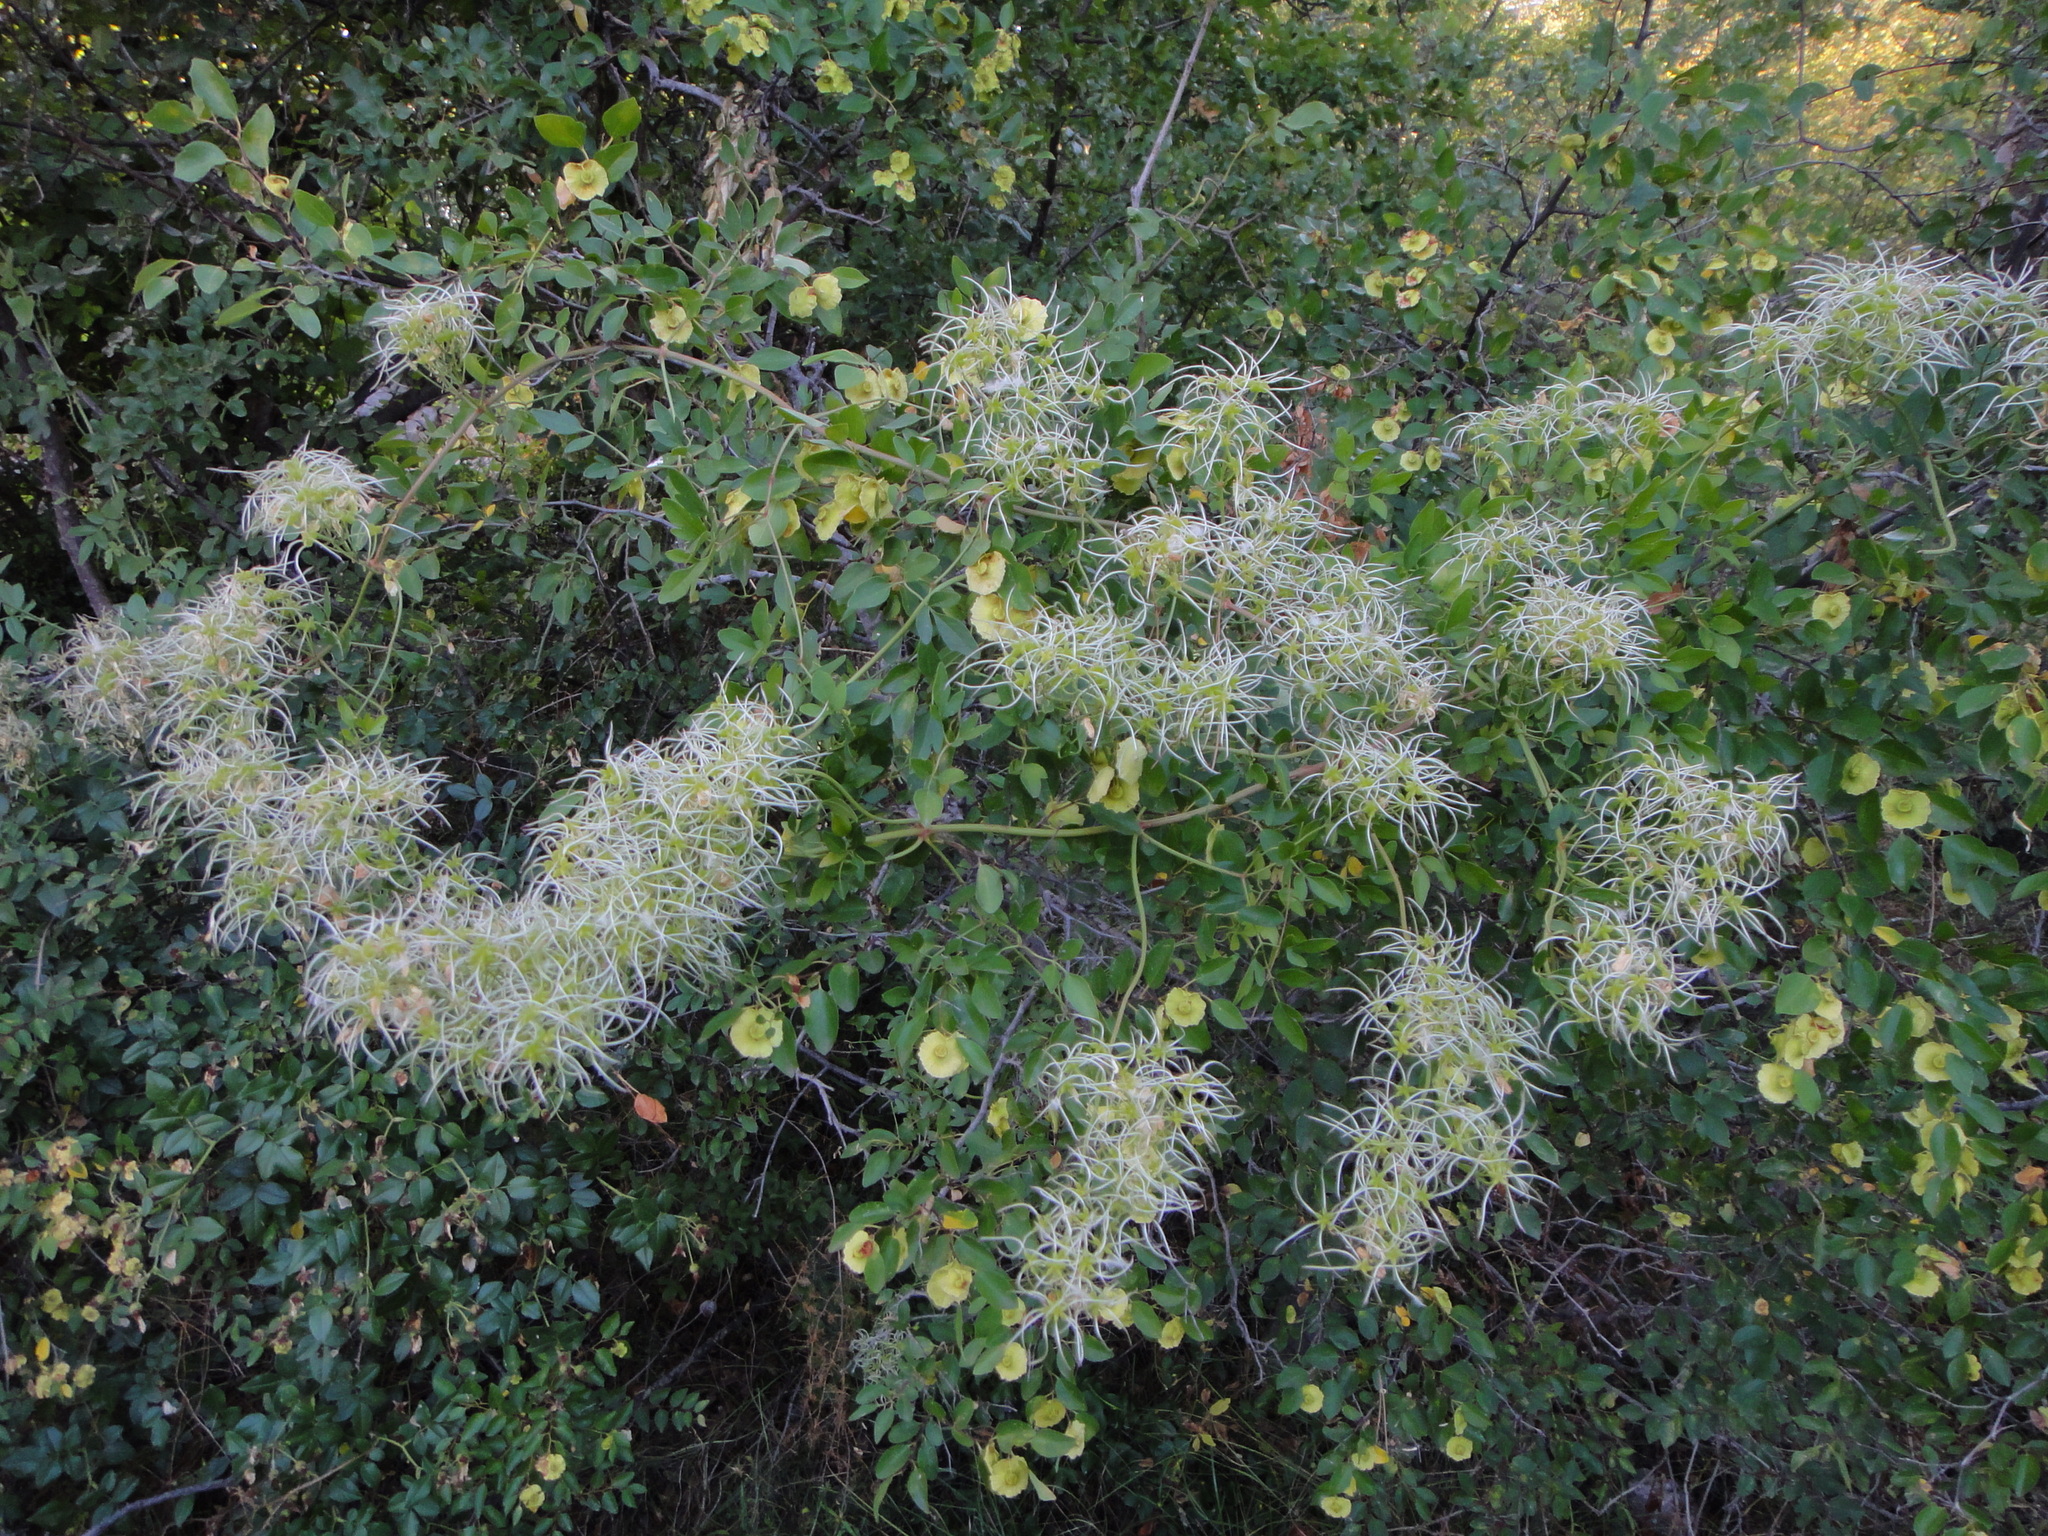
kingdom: Plantae
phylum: Tracheophyta
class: Magnoliopsida
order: Ranunculales
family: Ranunculaceae
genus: Clematis
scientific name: Clematis flammula
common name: Virgin's-bower
